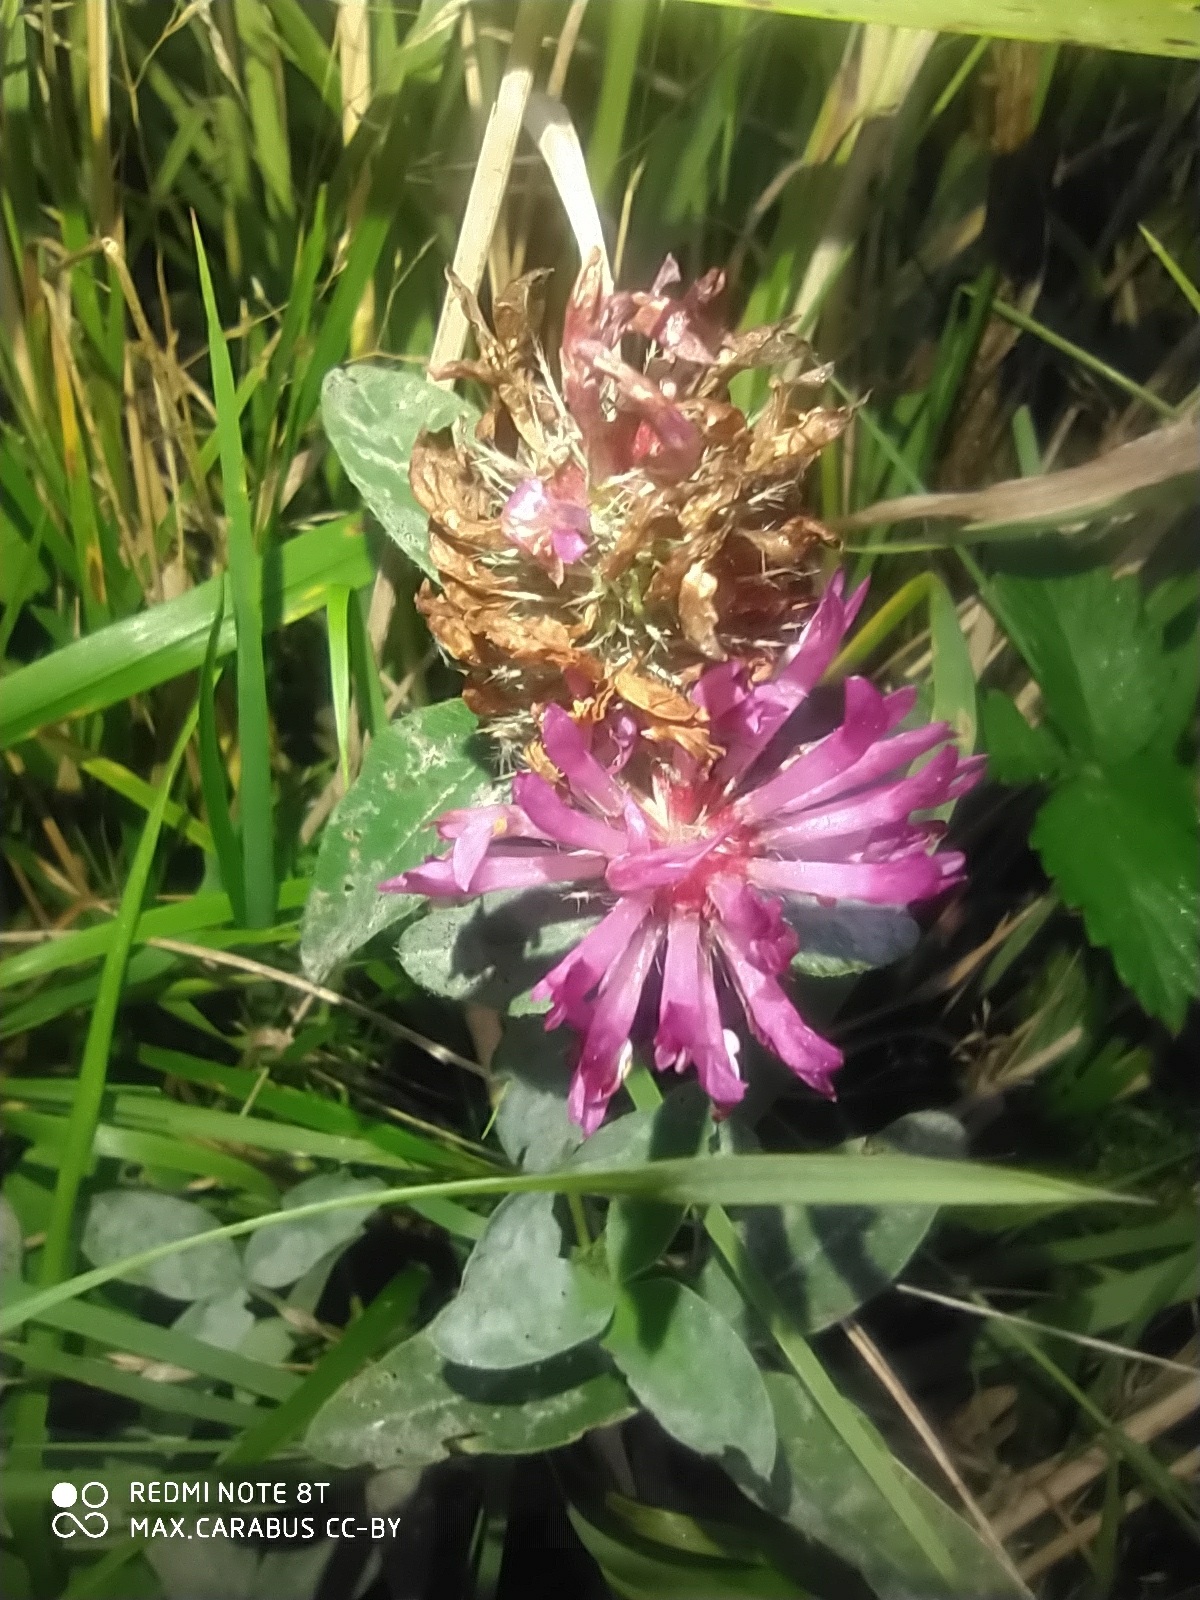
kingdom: Plantae
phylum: Tracheophyta
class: Magnoliopsida
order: Fabales
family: Fabaceae
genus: Trifolium
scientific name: Trifolium medium
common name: Zigzag clover
